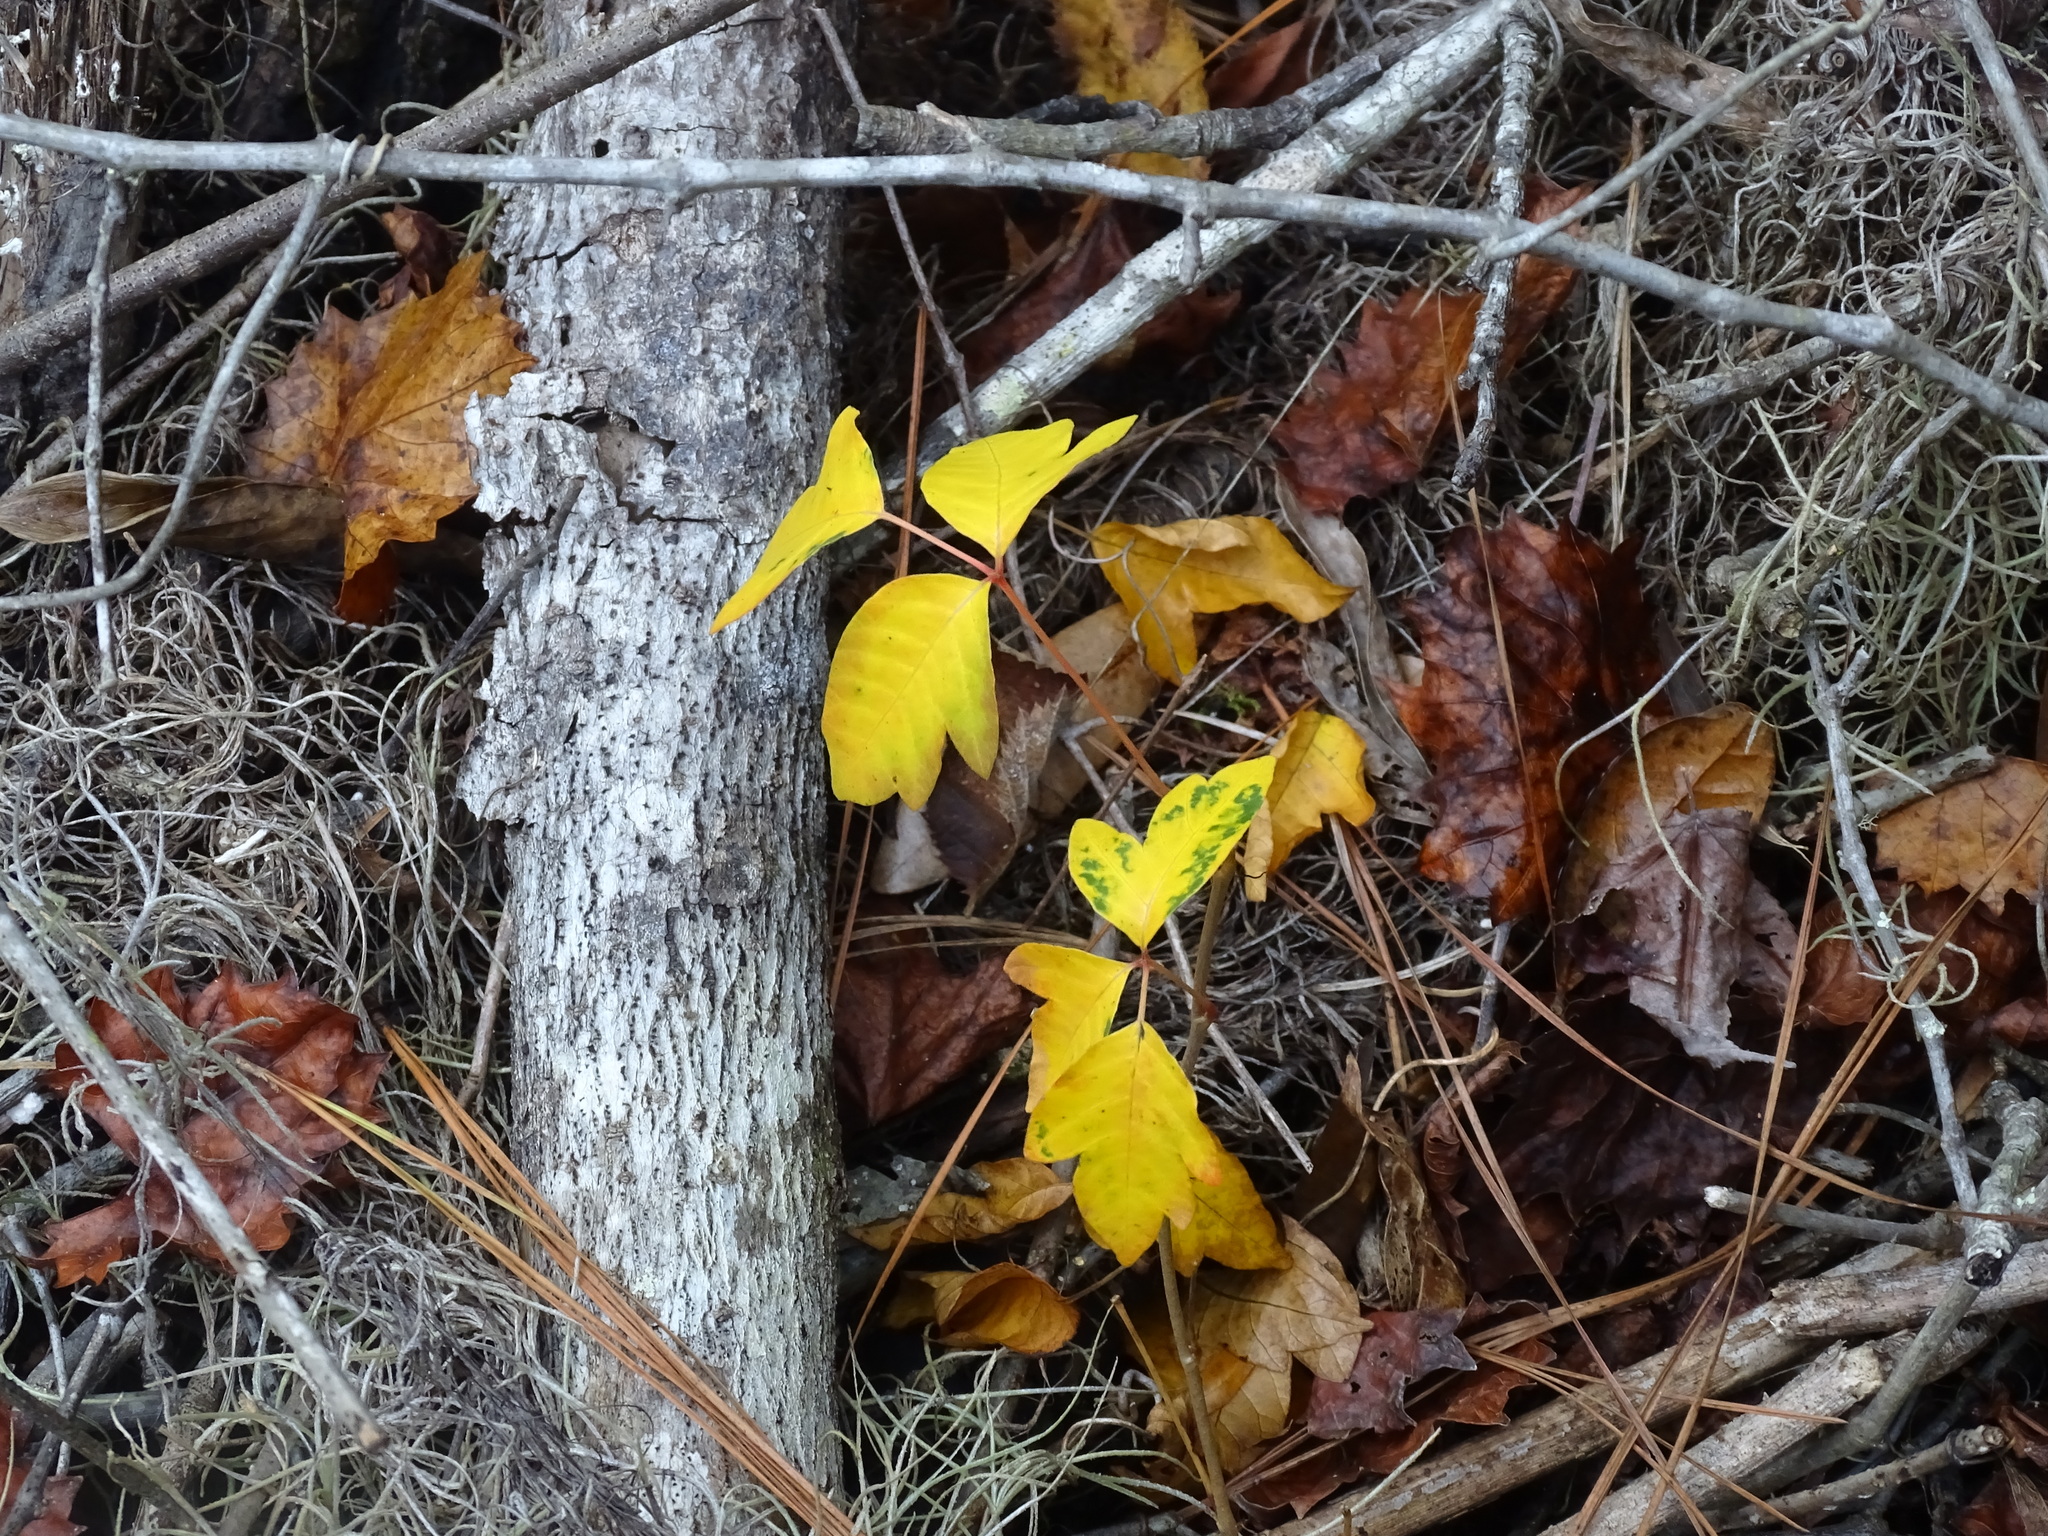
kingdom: Plantae
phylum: Tracheophyta
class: Magnoliopsida
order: Sapindales
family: Anacardiaceae
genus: Toxicodendron
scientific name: Toxicodendron radicans
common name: Poison ivy
